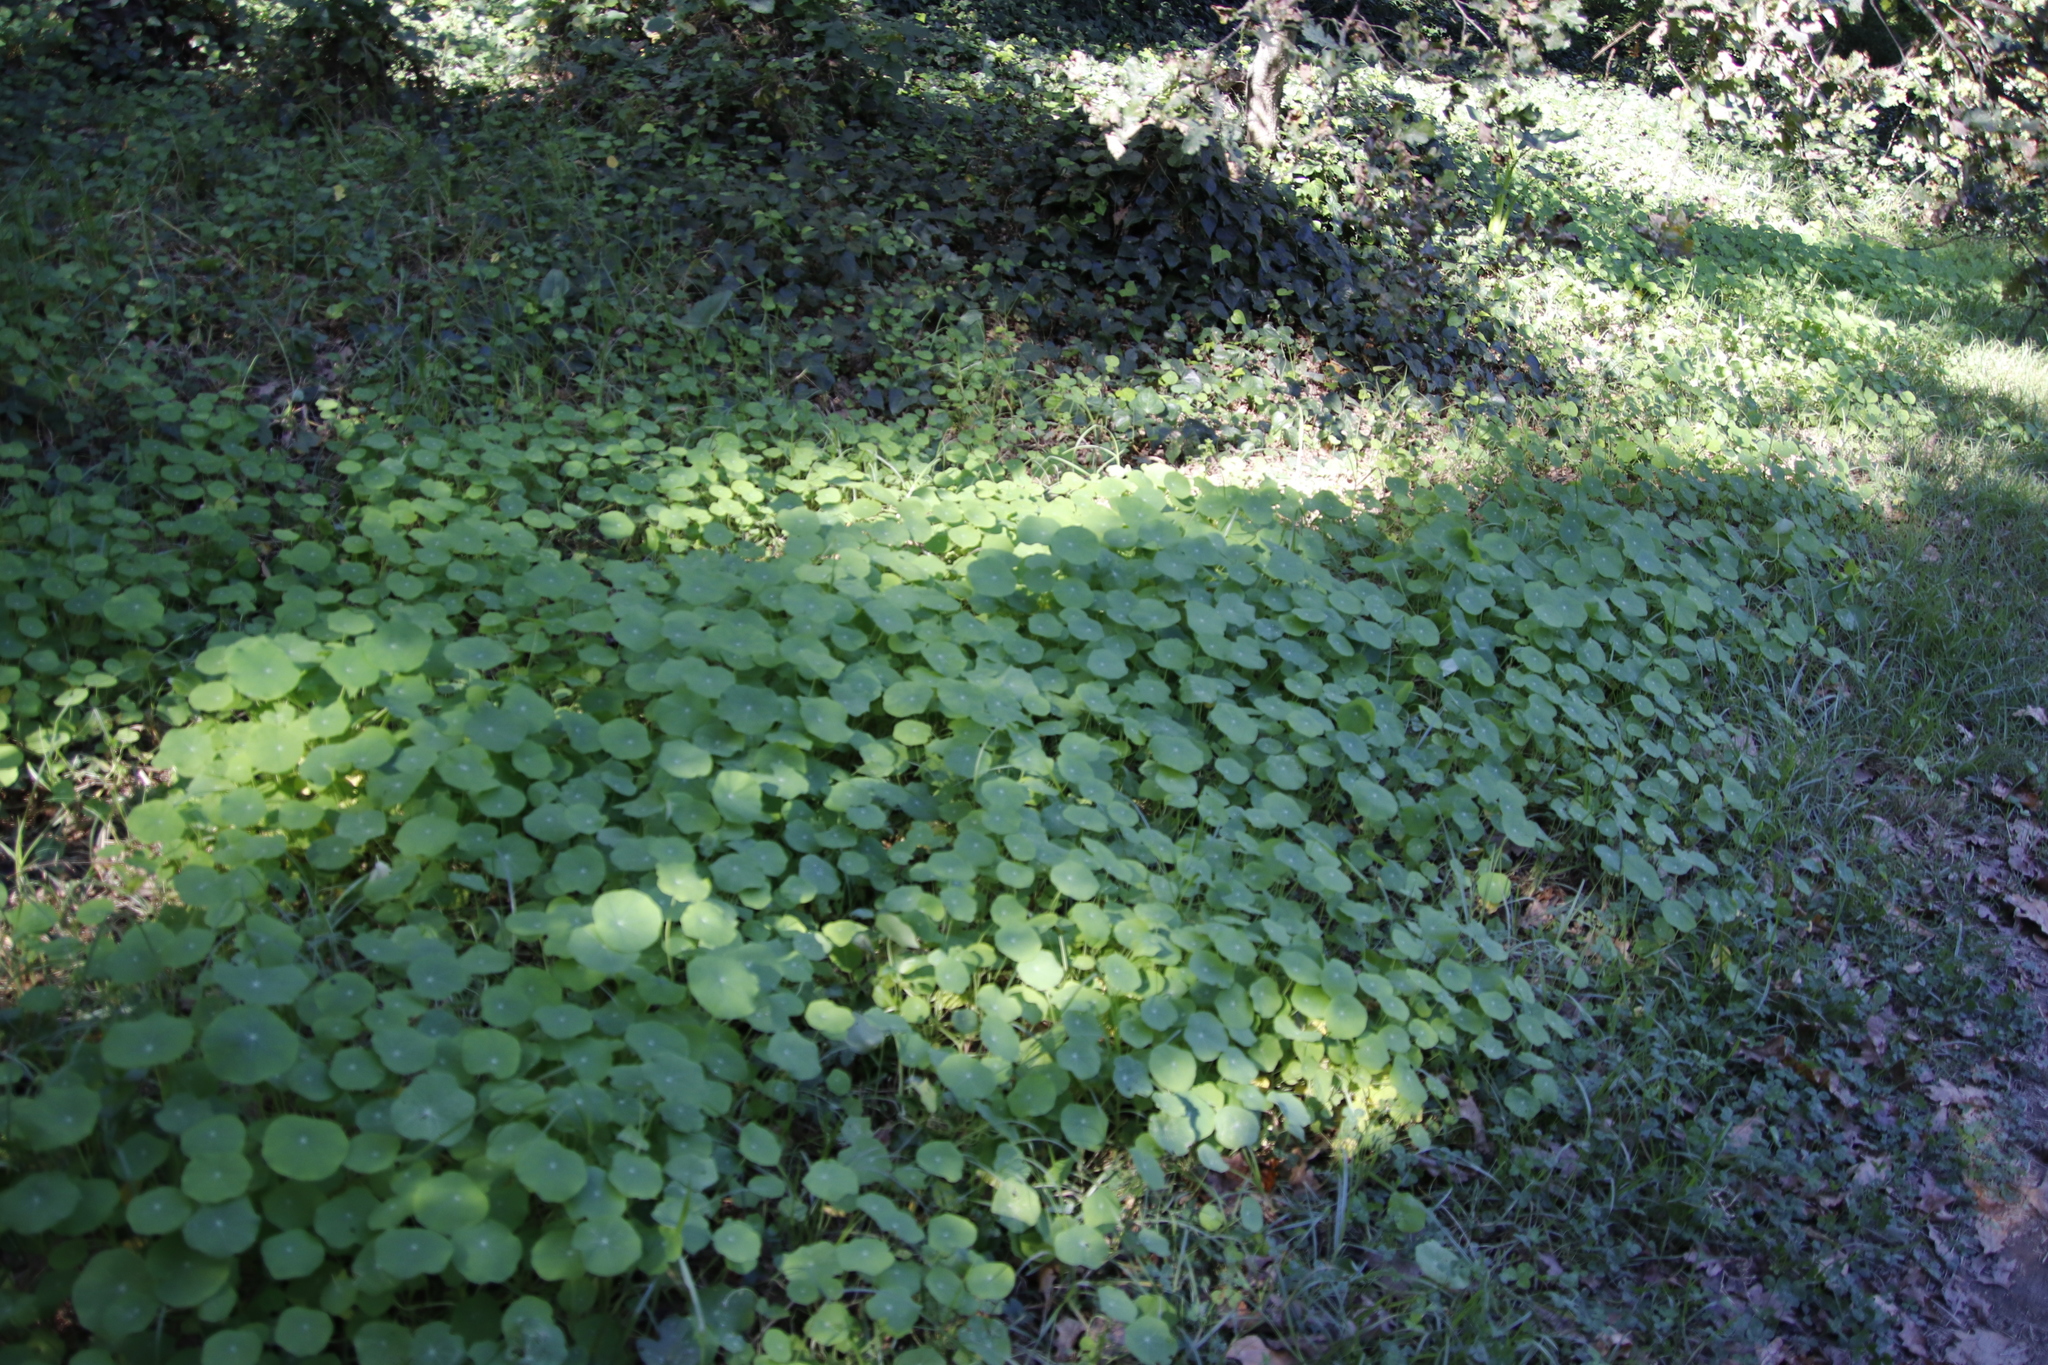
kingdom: Plantae
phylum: Tracheophyta
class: Magnoliopsida
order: Brassicales
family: Tropaeolaceae
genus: Tropaeolum
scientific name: Tropaeolum majus
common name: Nasturtium
